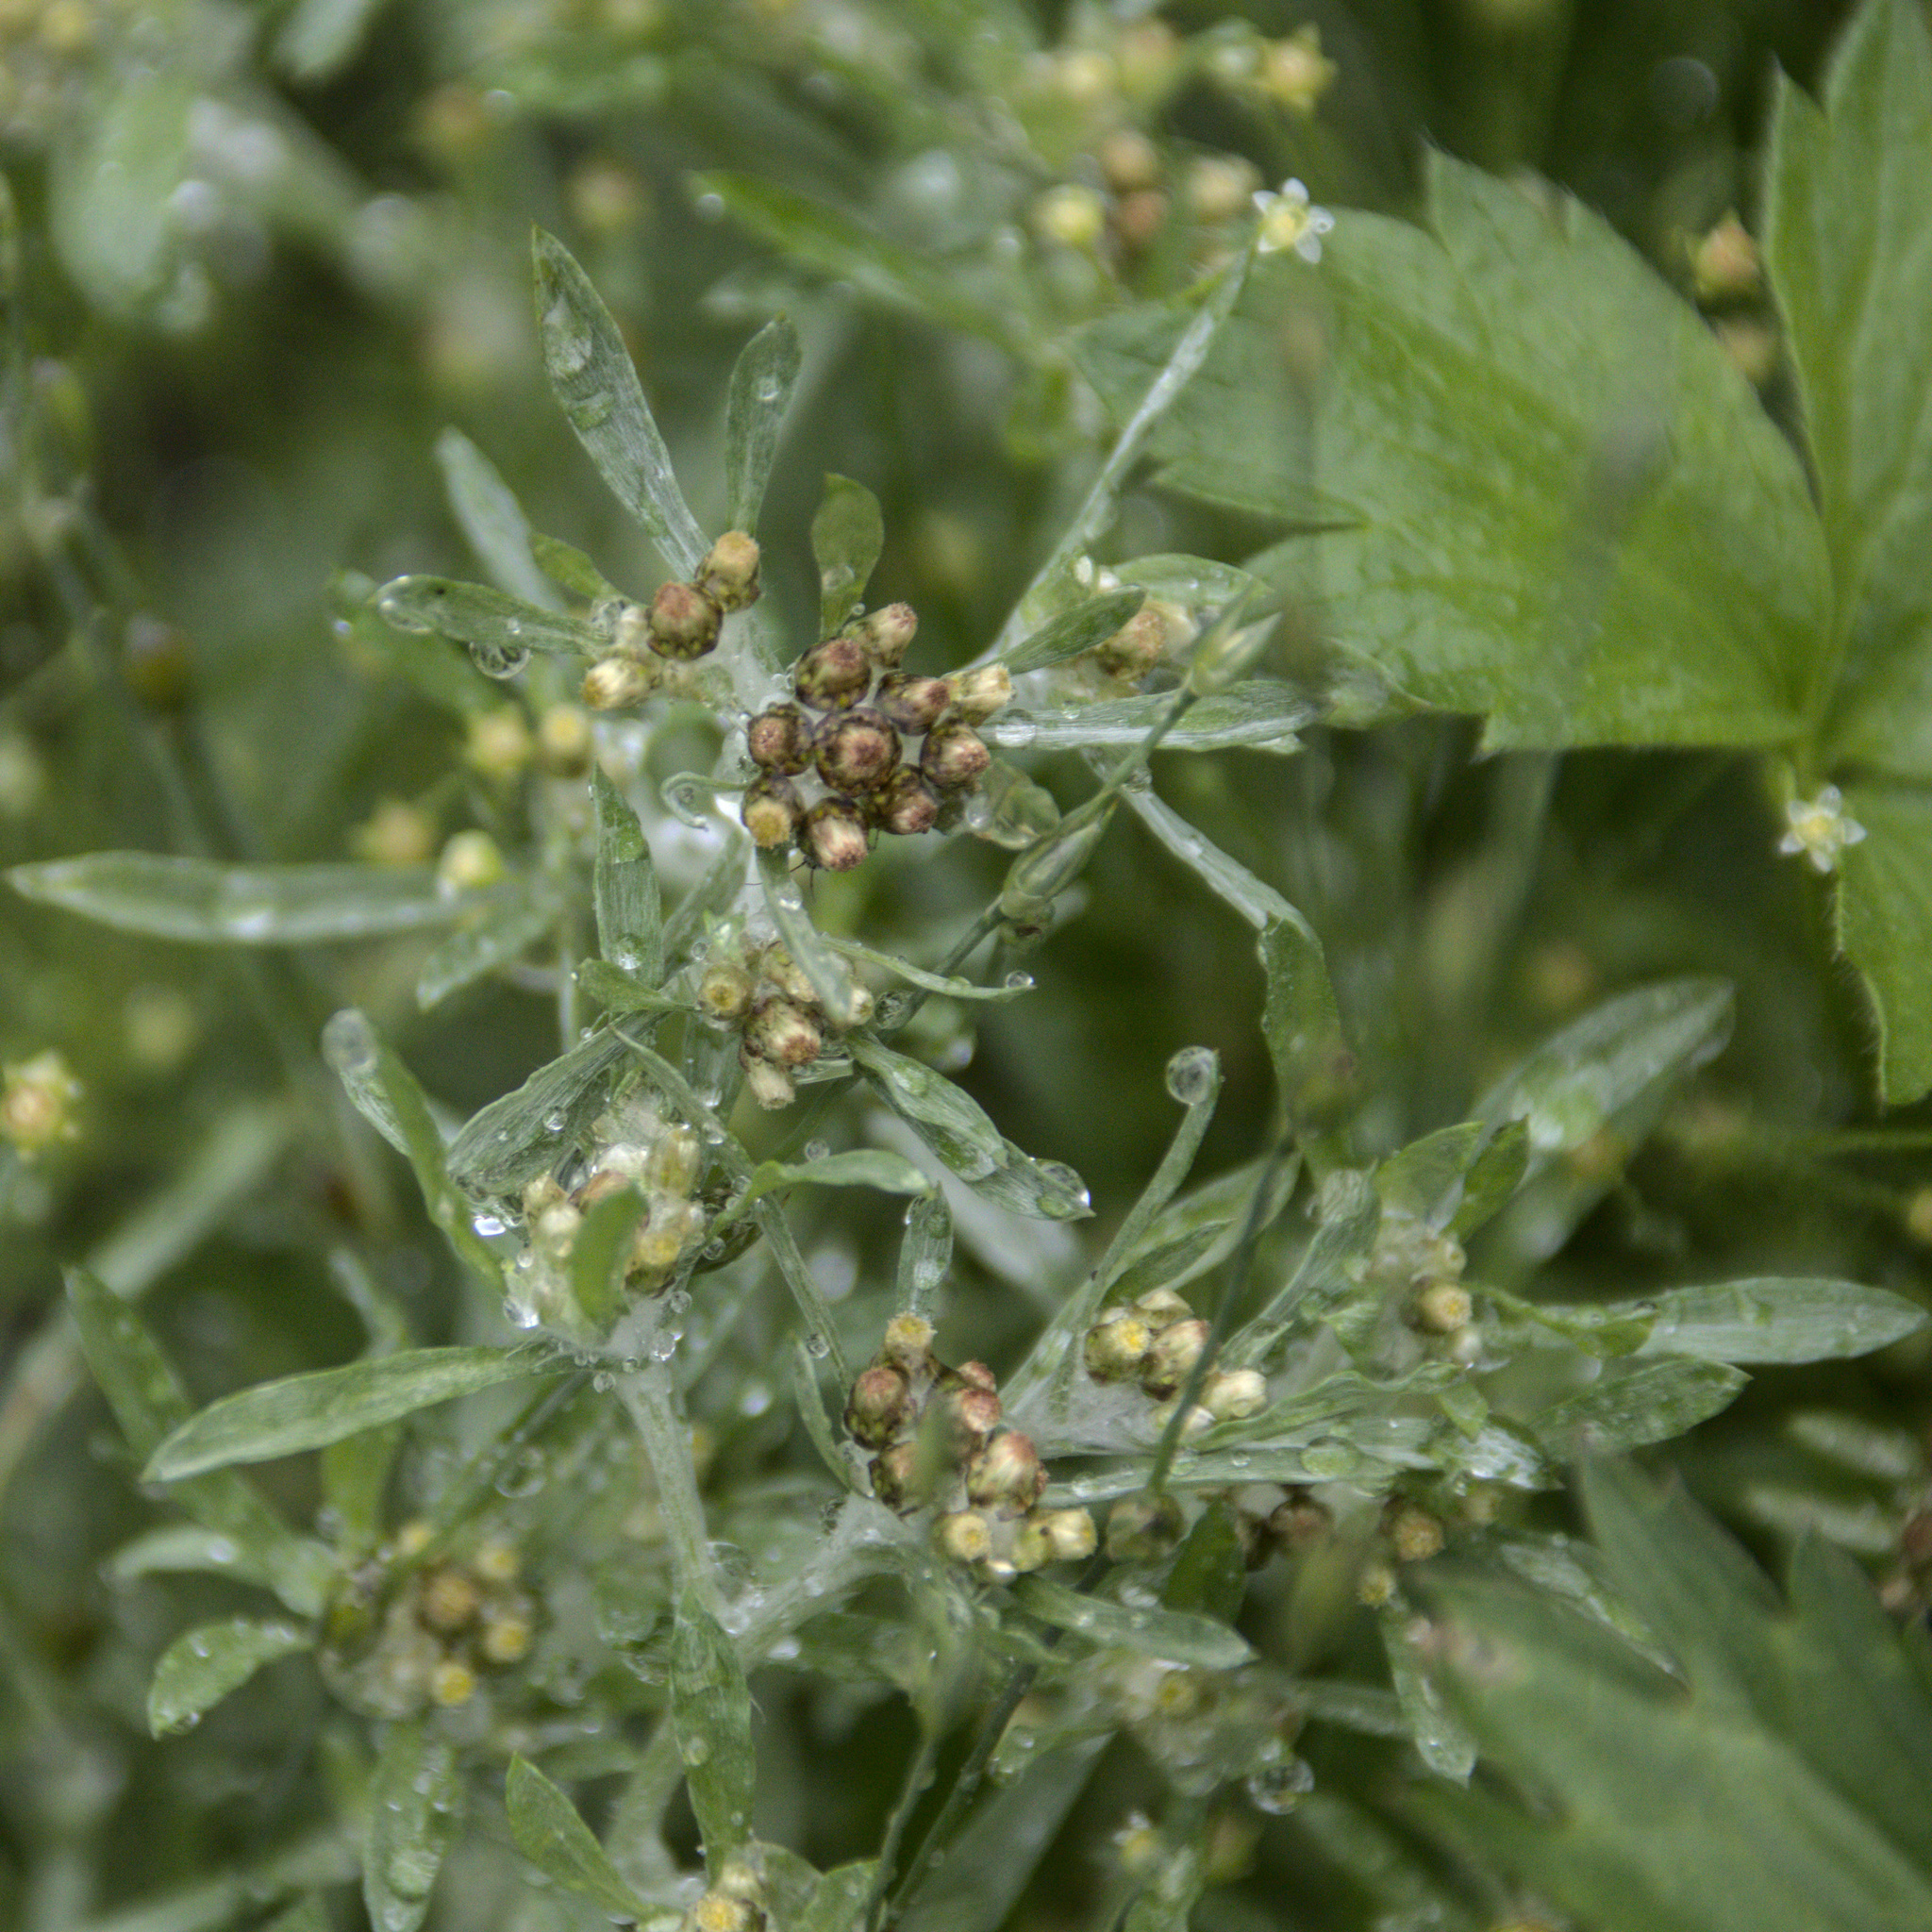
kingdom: Plantae
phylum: Tracheophyta
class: Magnoliopsida
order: Asterales
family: Asteraceae
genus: Gnaphalium
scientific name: Gnaphalium uliginosum
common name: Marsh cudweed
